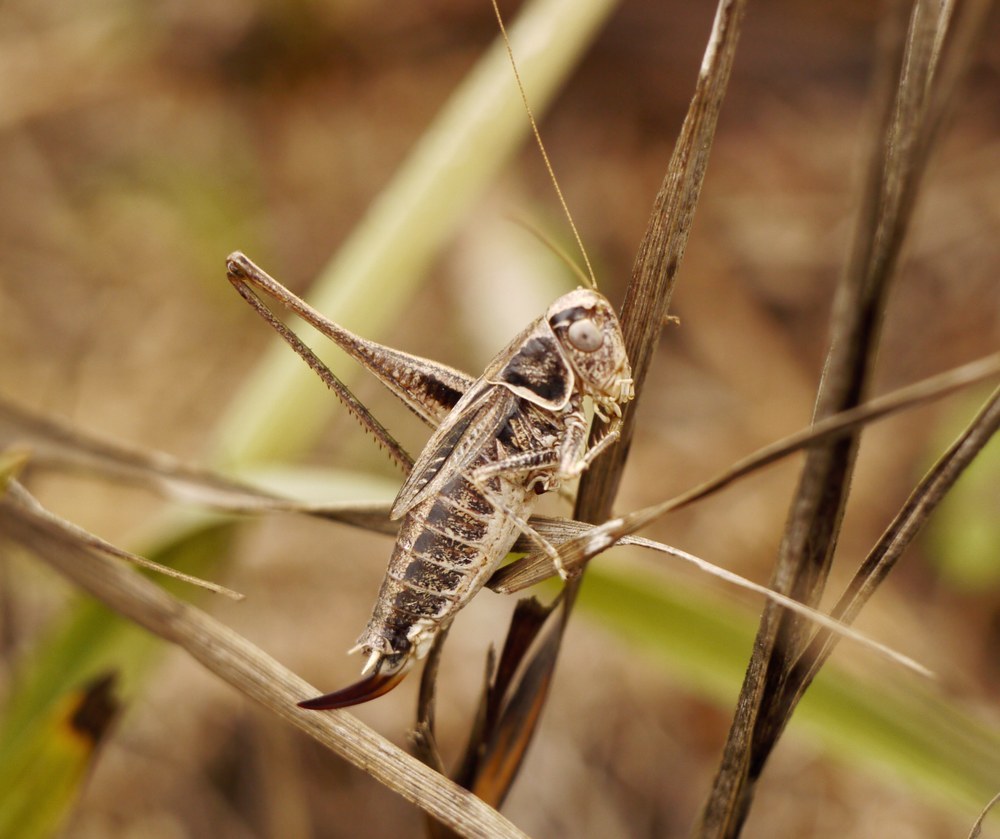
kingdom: Animalia
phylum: Arthropoda
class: Insecta
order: Orthoptera
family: Tettigoniidae
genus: Tessellana
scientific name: Tessellana veyseli
